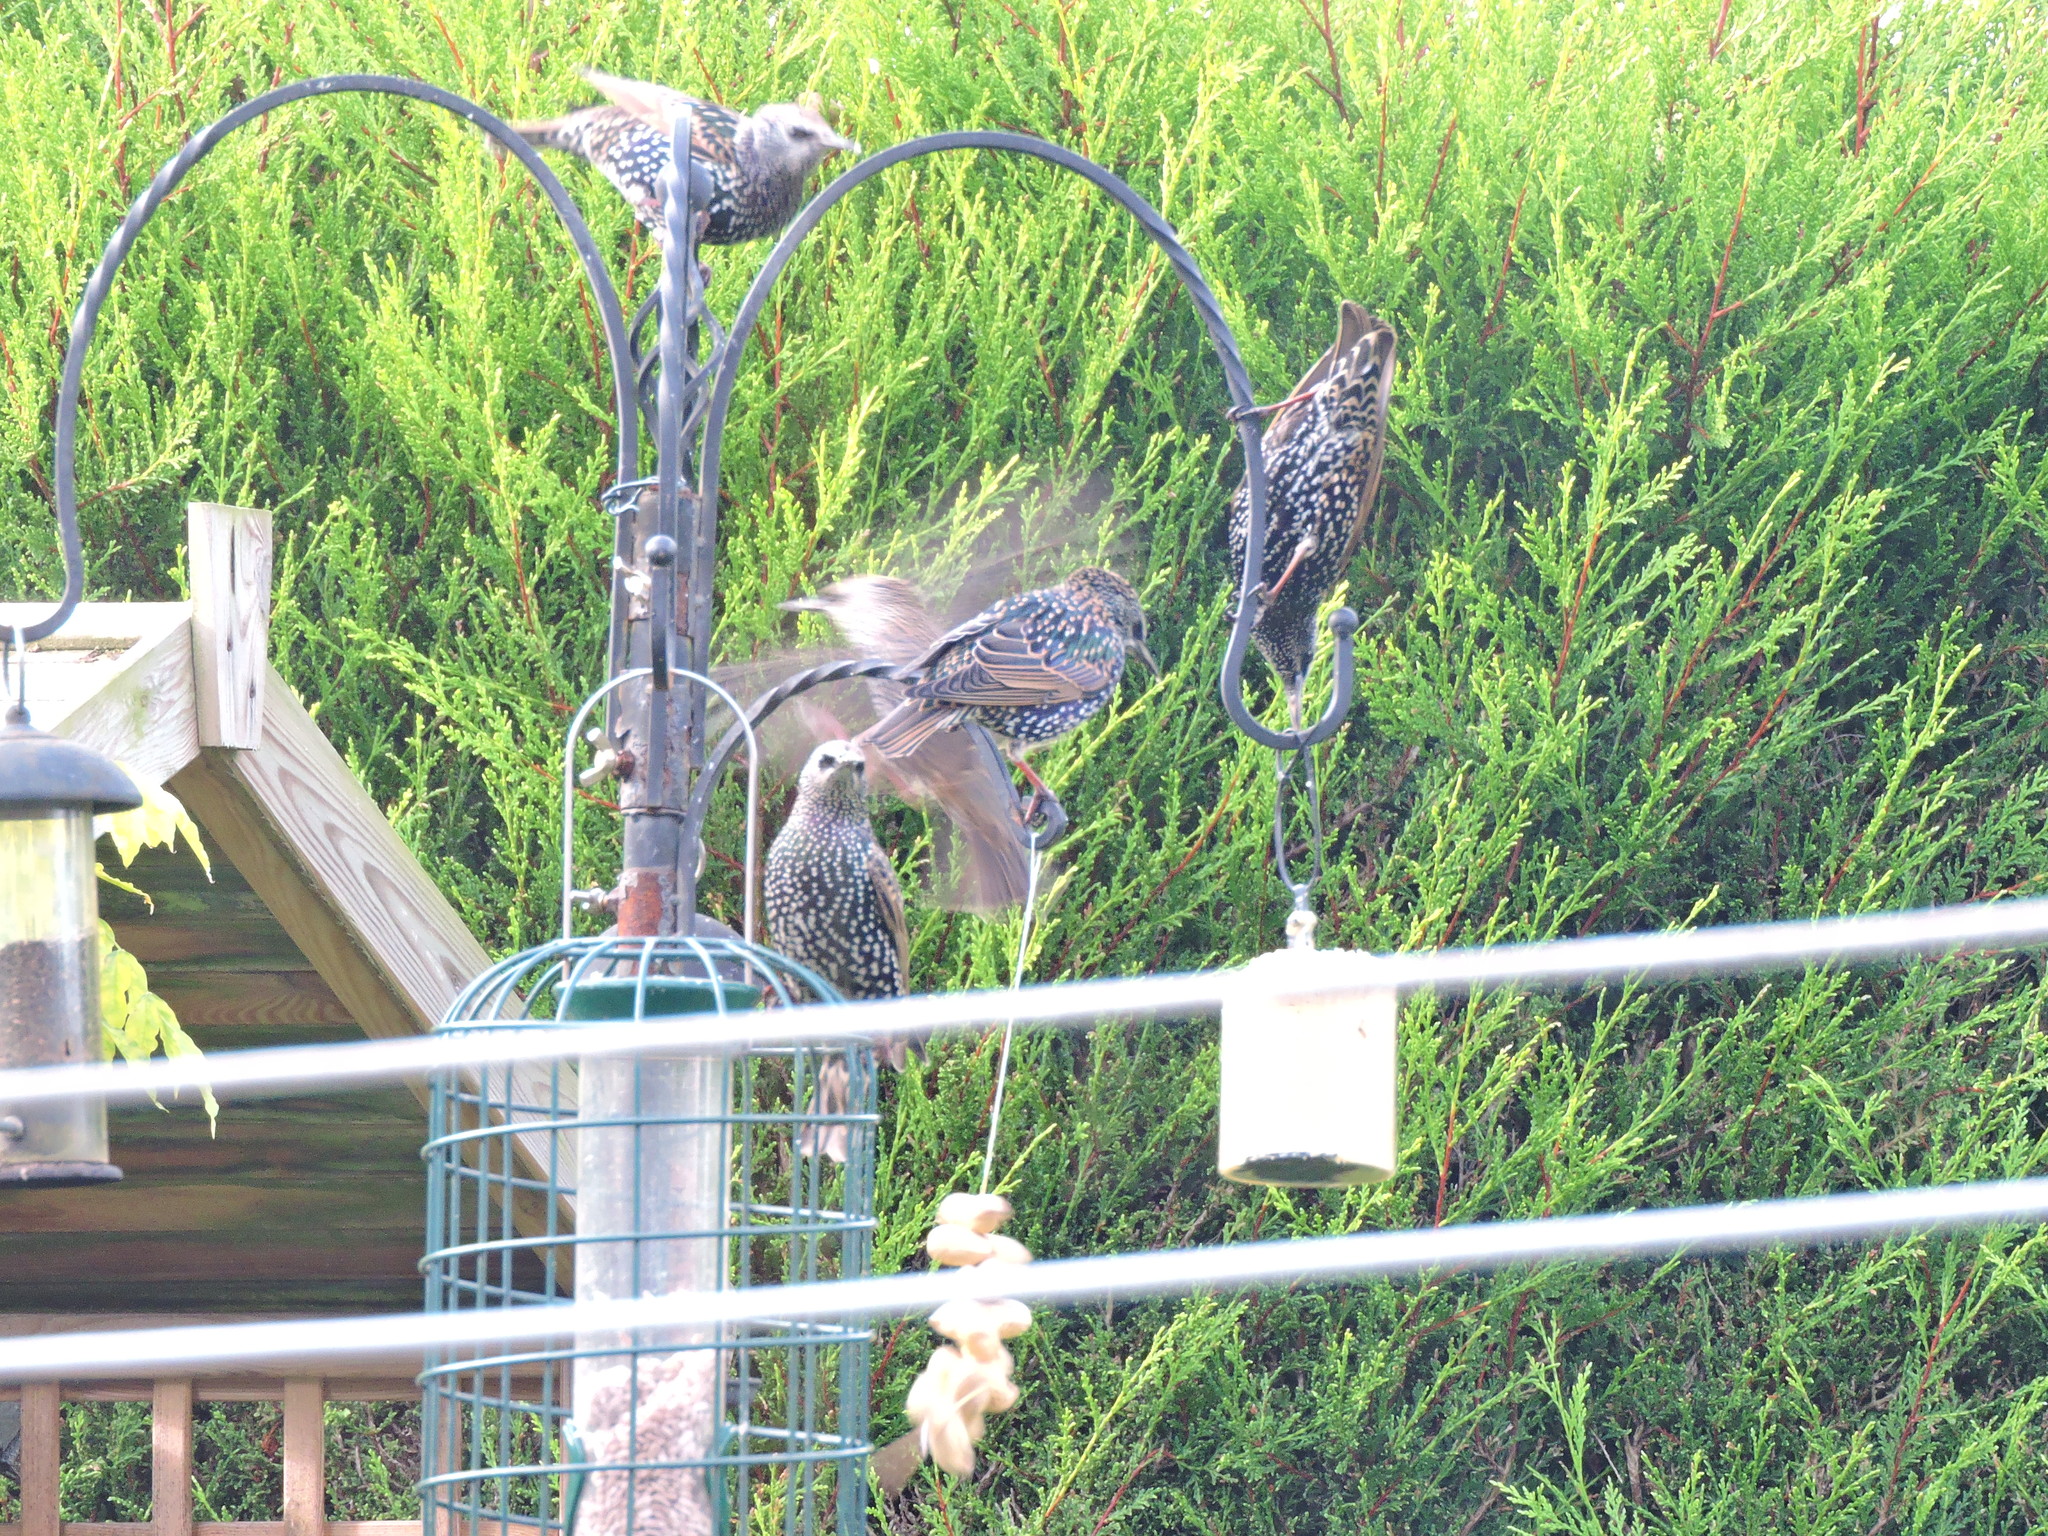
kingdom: Animalia
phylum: Chordata
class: Aves
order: Passeriformes
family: Sturnidae
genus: Sturnus
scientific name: Sturnus vulgaris
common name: Common starling
